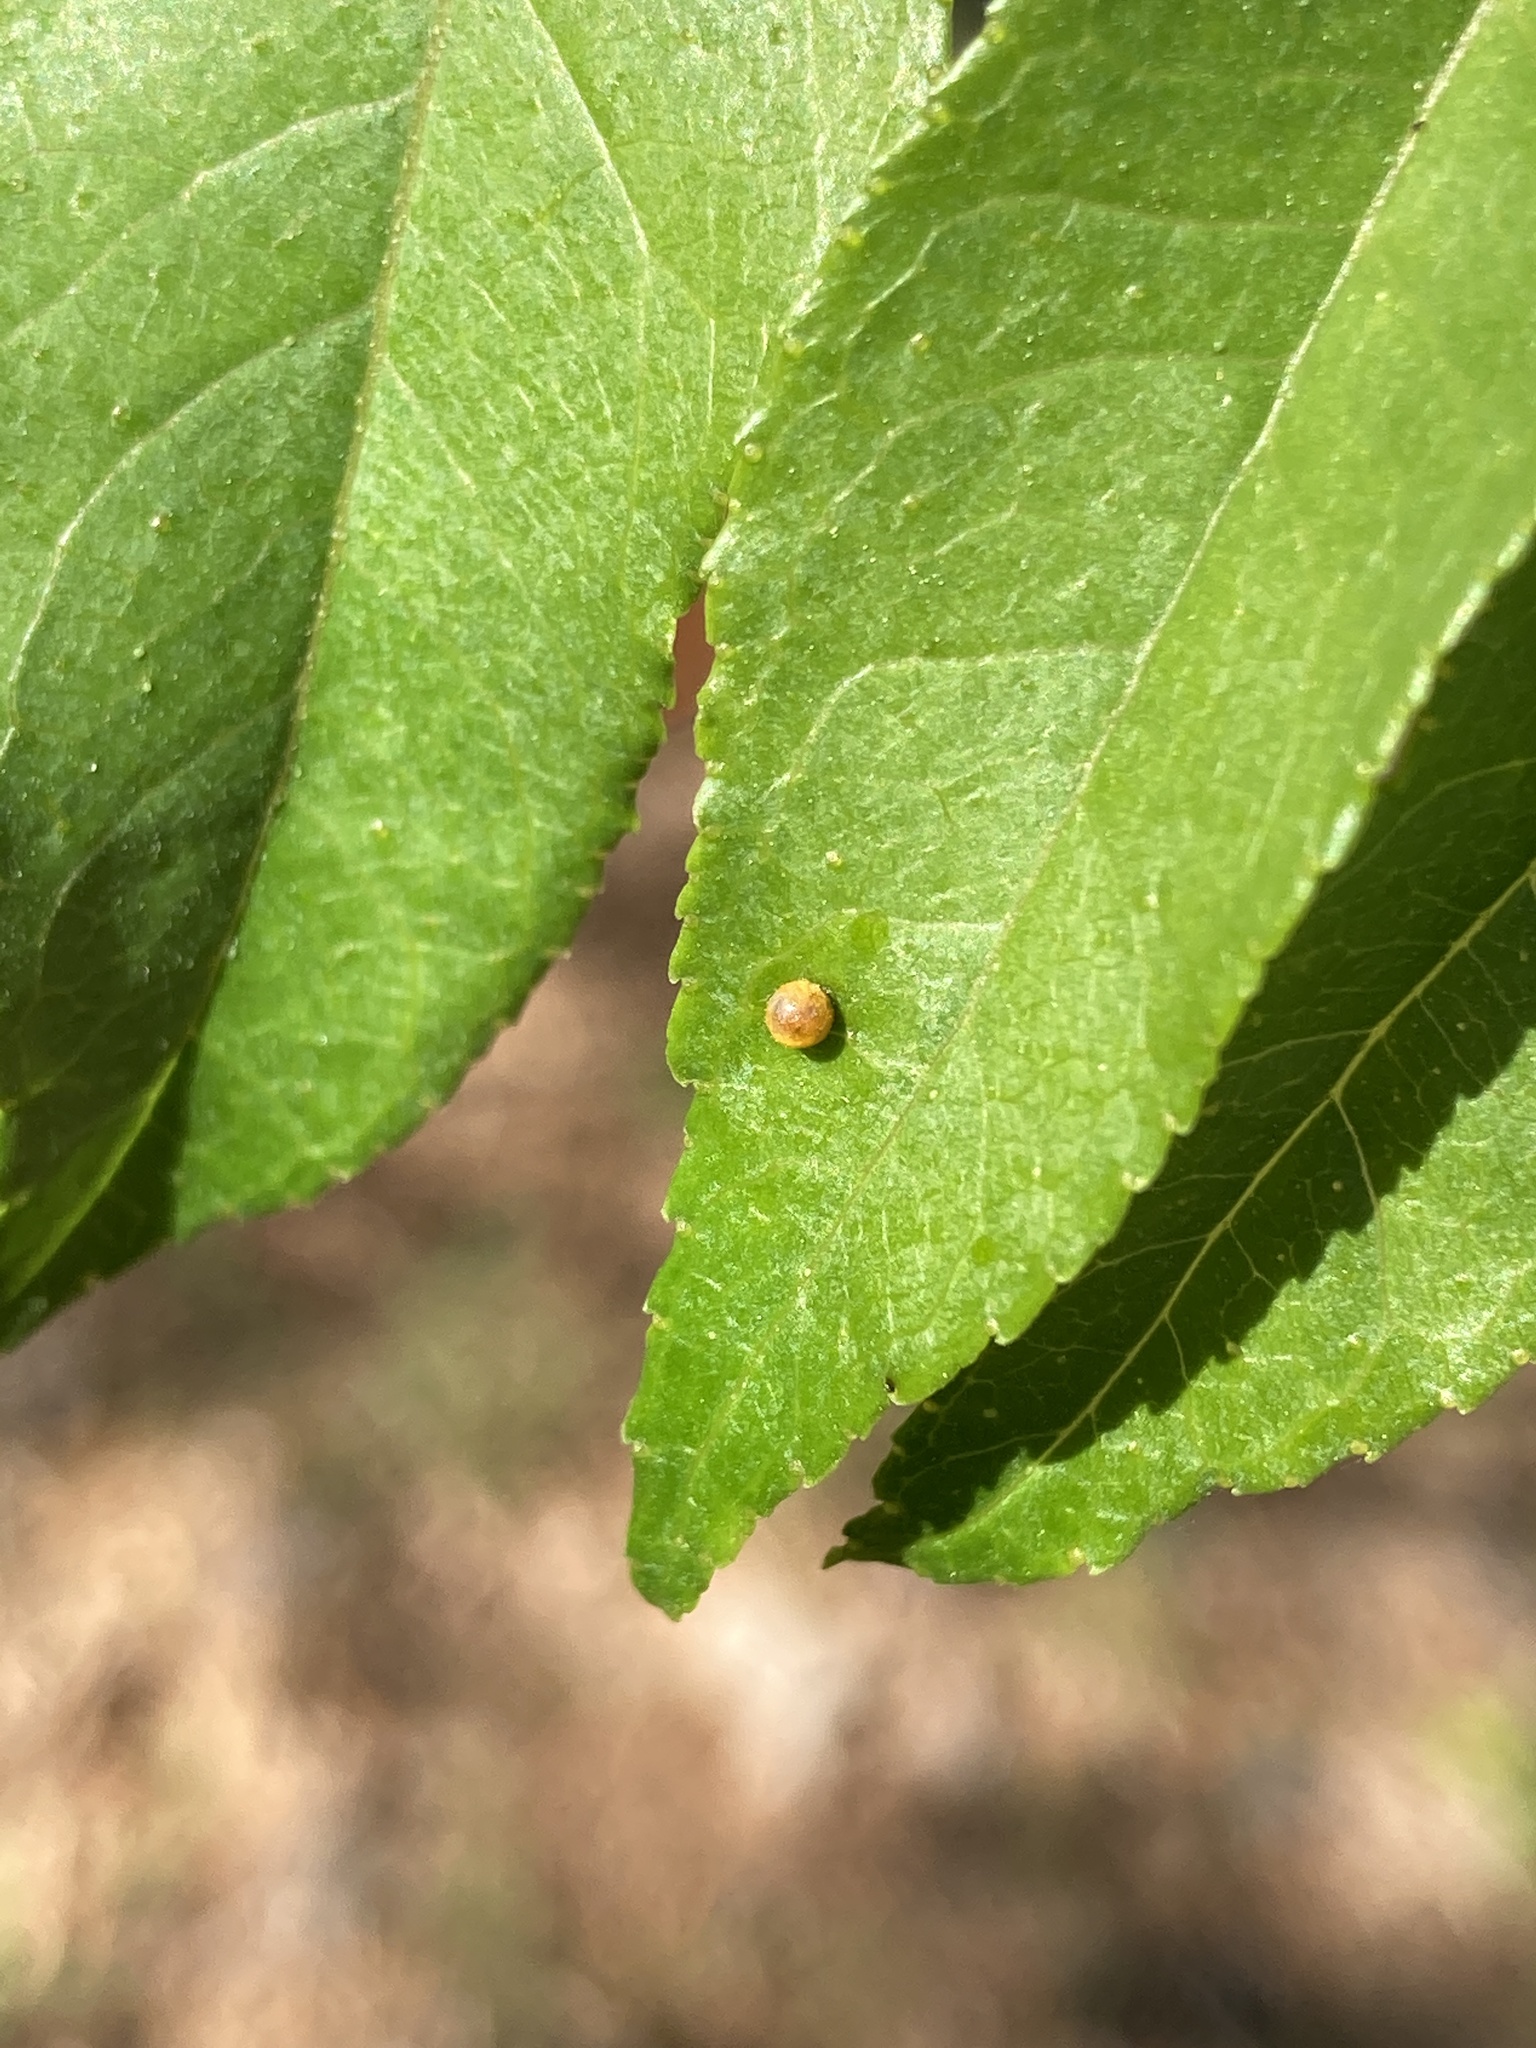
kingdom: Animalia
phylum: Arthropoda
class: Insecta
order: Lepidoptera
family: Papilionidae
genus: Papilio
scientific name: Papilio cresphontes
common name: Giant swallowtail
